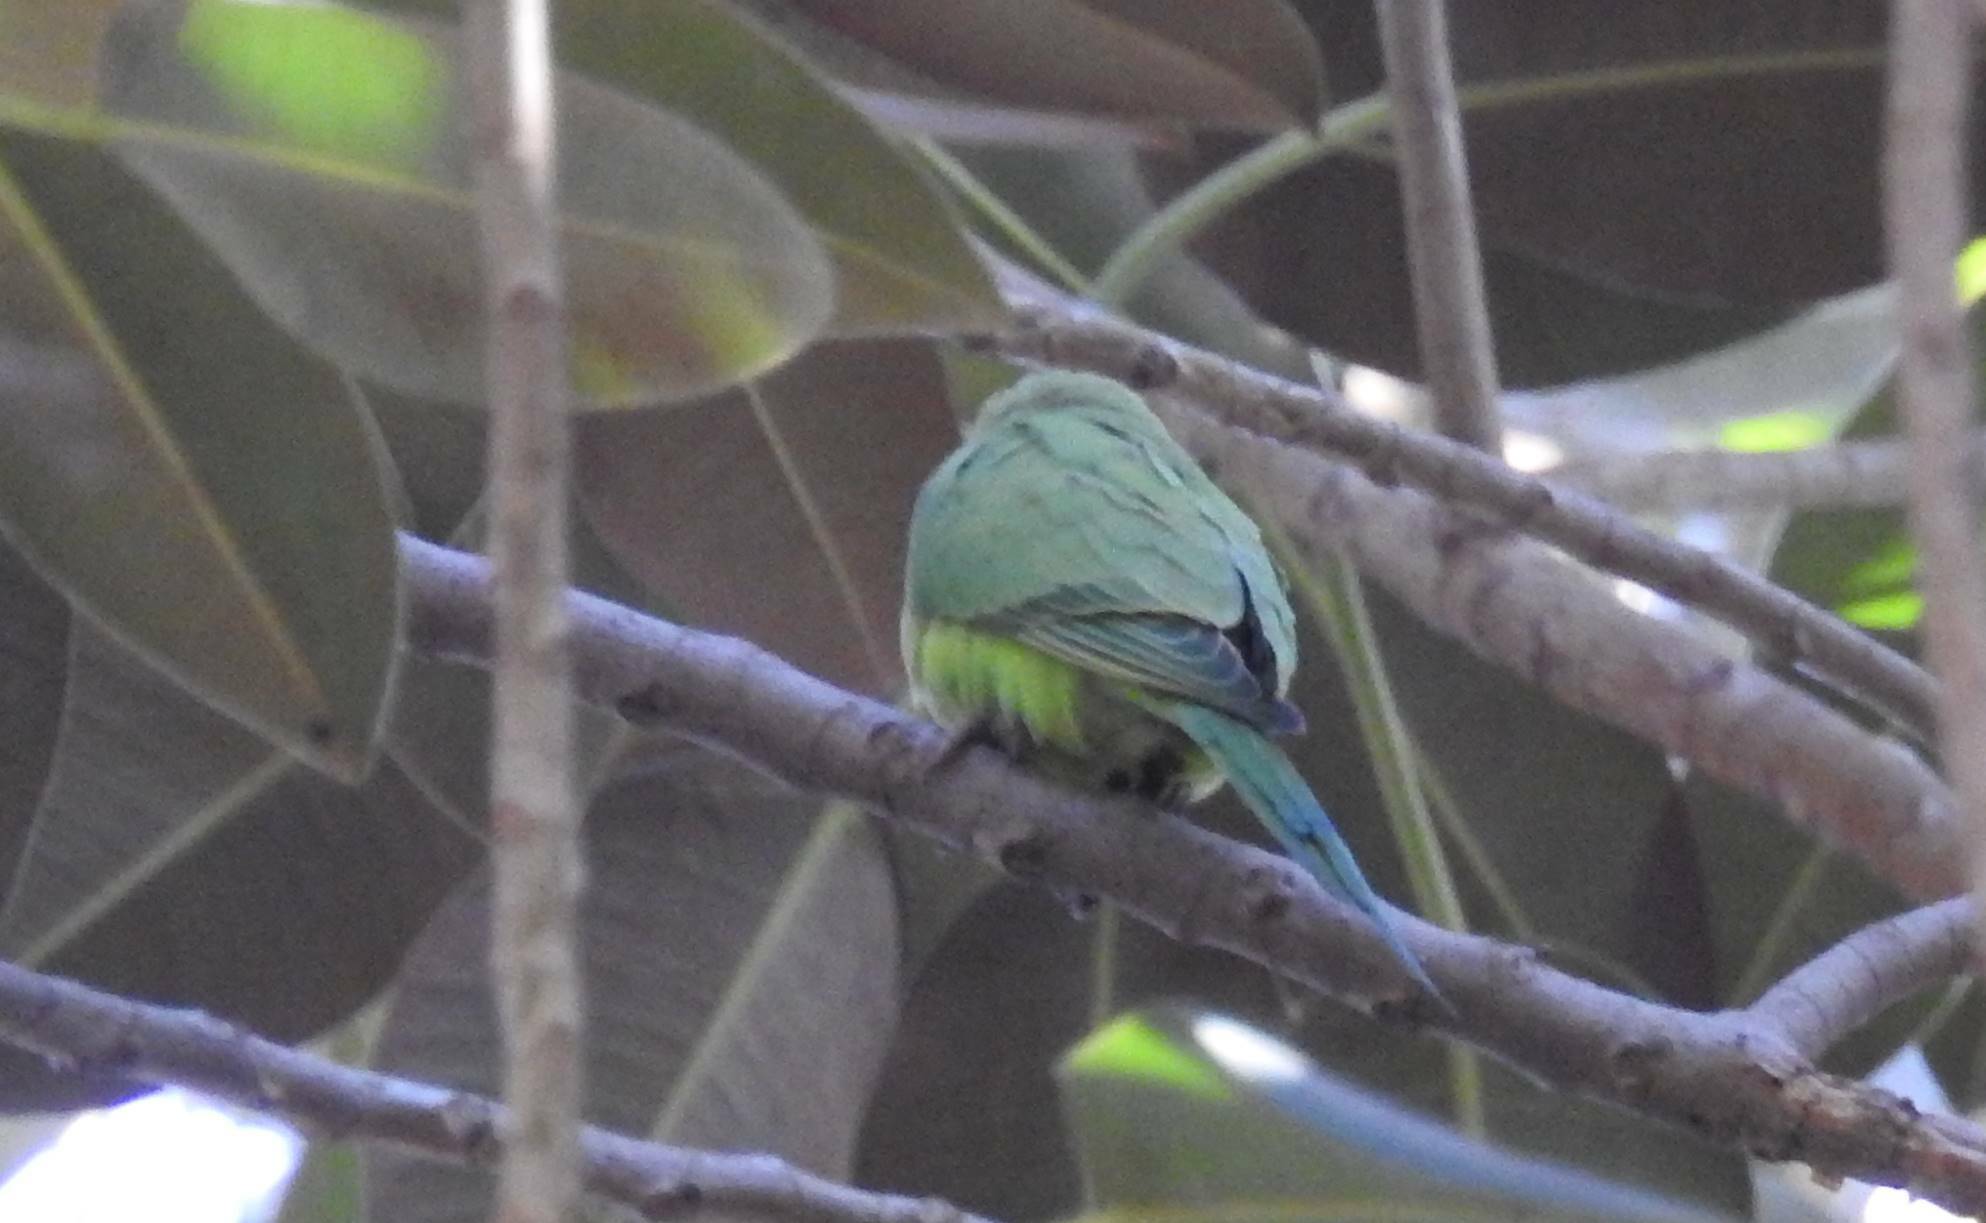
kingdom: Animalia
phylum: Chordata
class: Aves
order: Psittaciformes
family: Psittacidae
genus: Psittacula
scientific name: Psittacula krameri
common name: Rose-ringed parakeet
